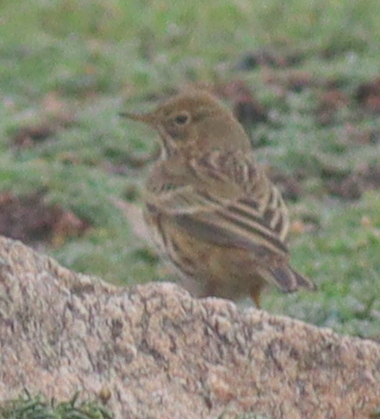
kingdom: Animalia
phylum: Chordata
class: Aves
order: Passeriformes
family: Motacillidae
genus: Anthus
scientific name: Anthus pratensis
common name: Meadow pipit
